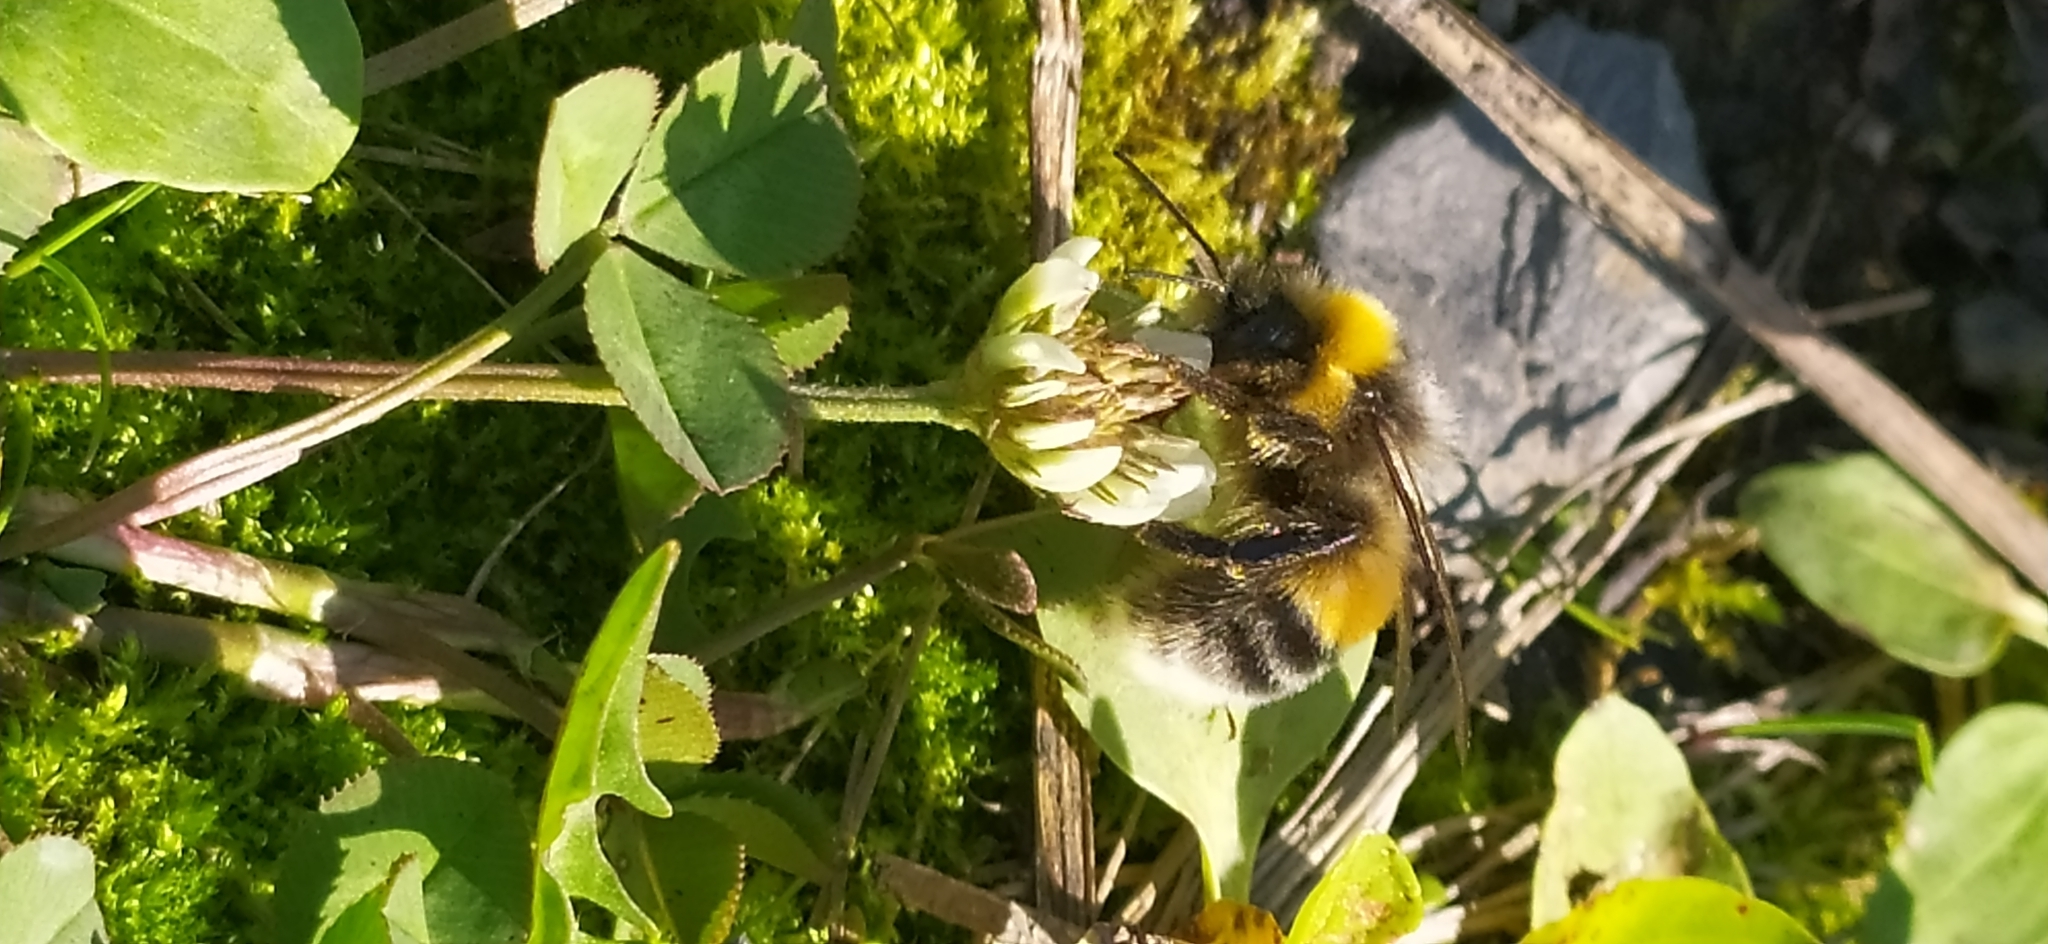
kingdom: Animalia
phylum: Arthropoda
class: Insecta
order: Hymenoptera
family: Apidae
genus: Bombus
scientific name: Bombus lucorum
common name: White-tailed bumblebee
